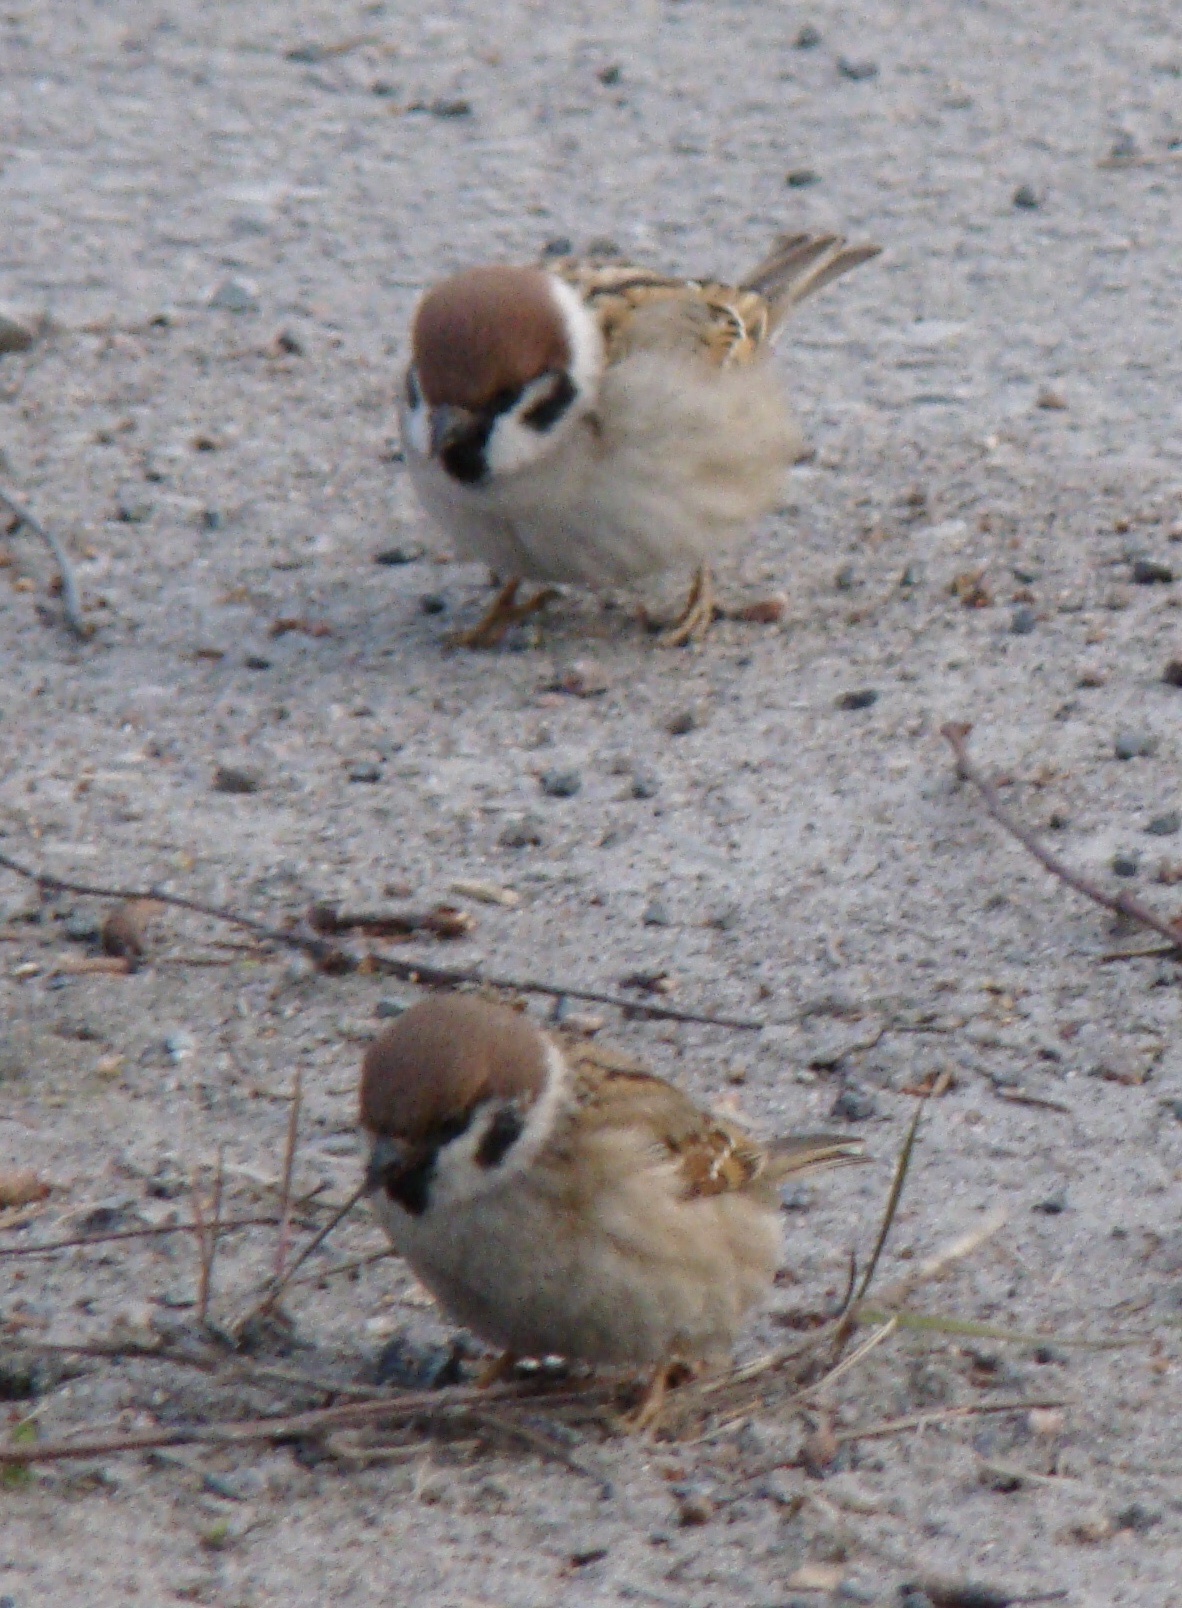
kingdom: Animalia
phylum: Chordata
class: Aves
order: Passeriformes
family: Passeridae
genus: Passer
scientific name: Passer montanus
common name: Eurasian tree sparrow
